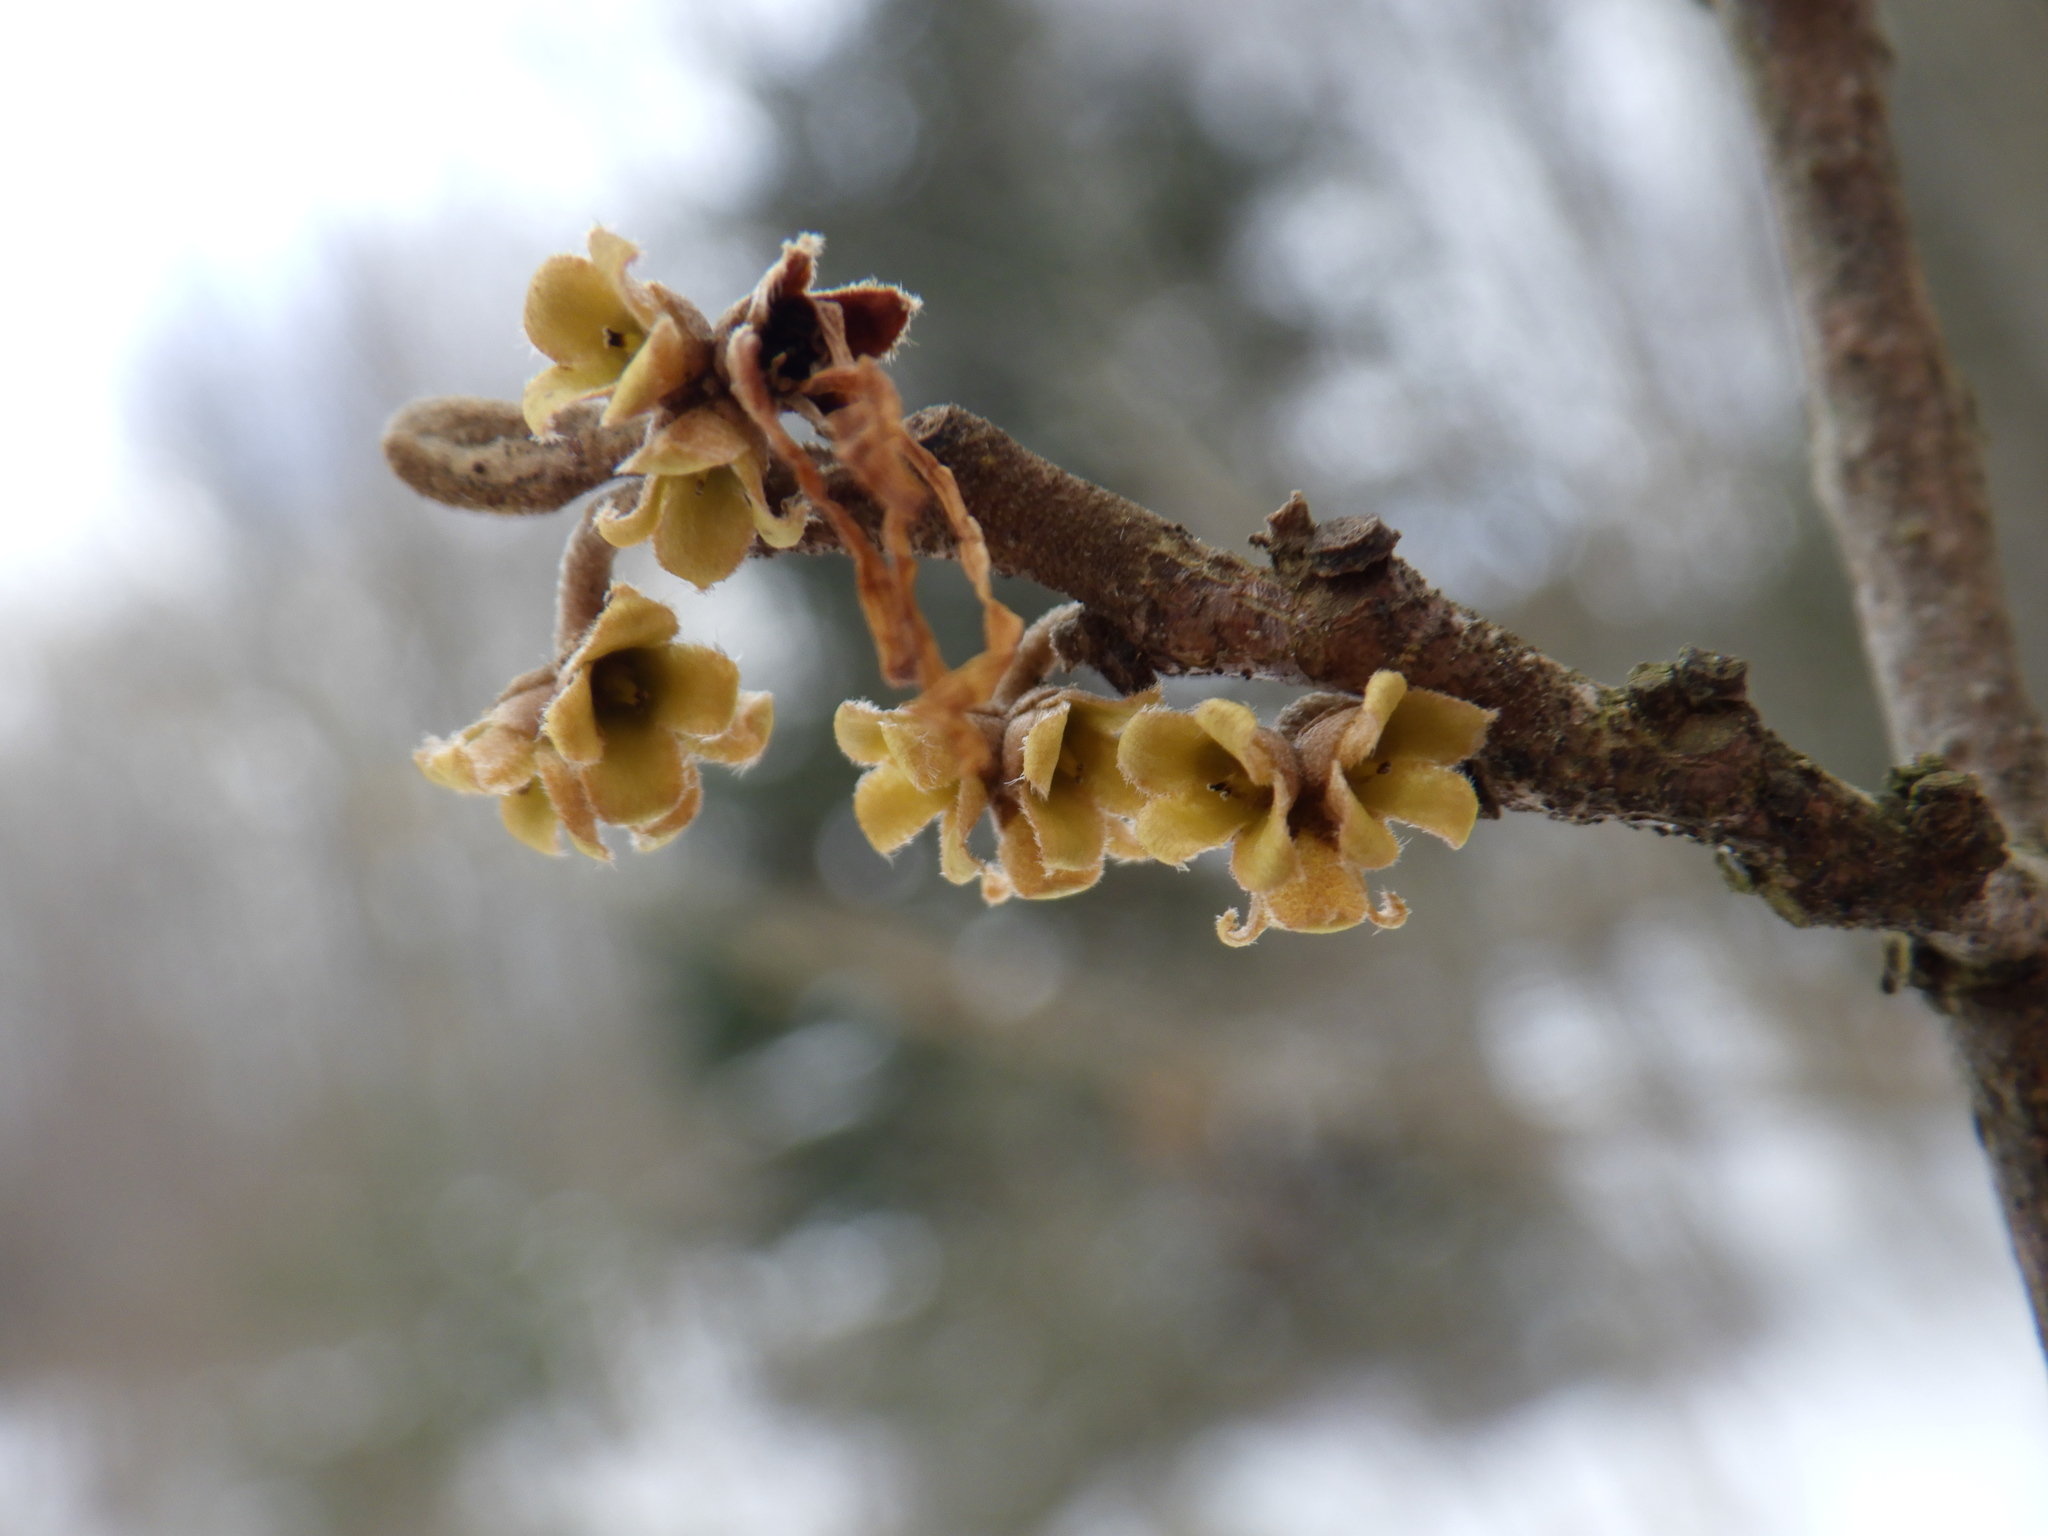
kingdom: Plantae
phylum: Tracheophyta
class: Magnoliopsida
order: Saxifragales
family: Hamamelidaceae
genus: Hamamelis
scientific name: Hamamelis virginiana
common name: Witch-hazel
